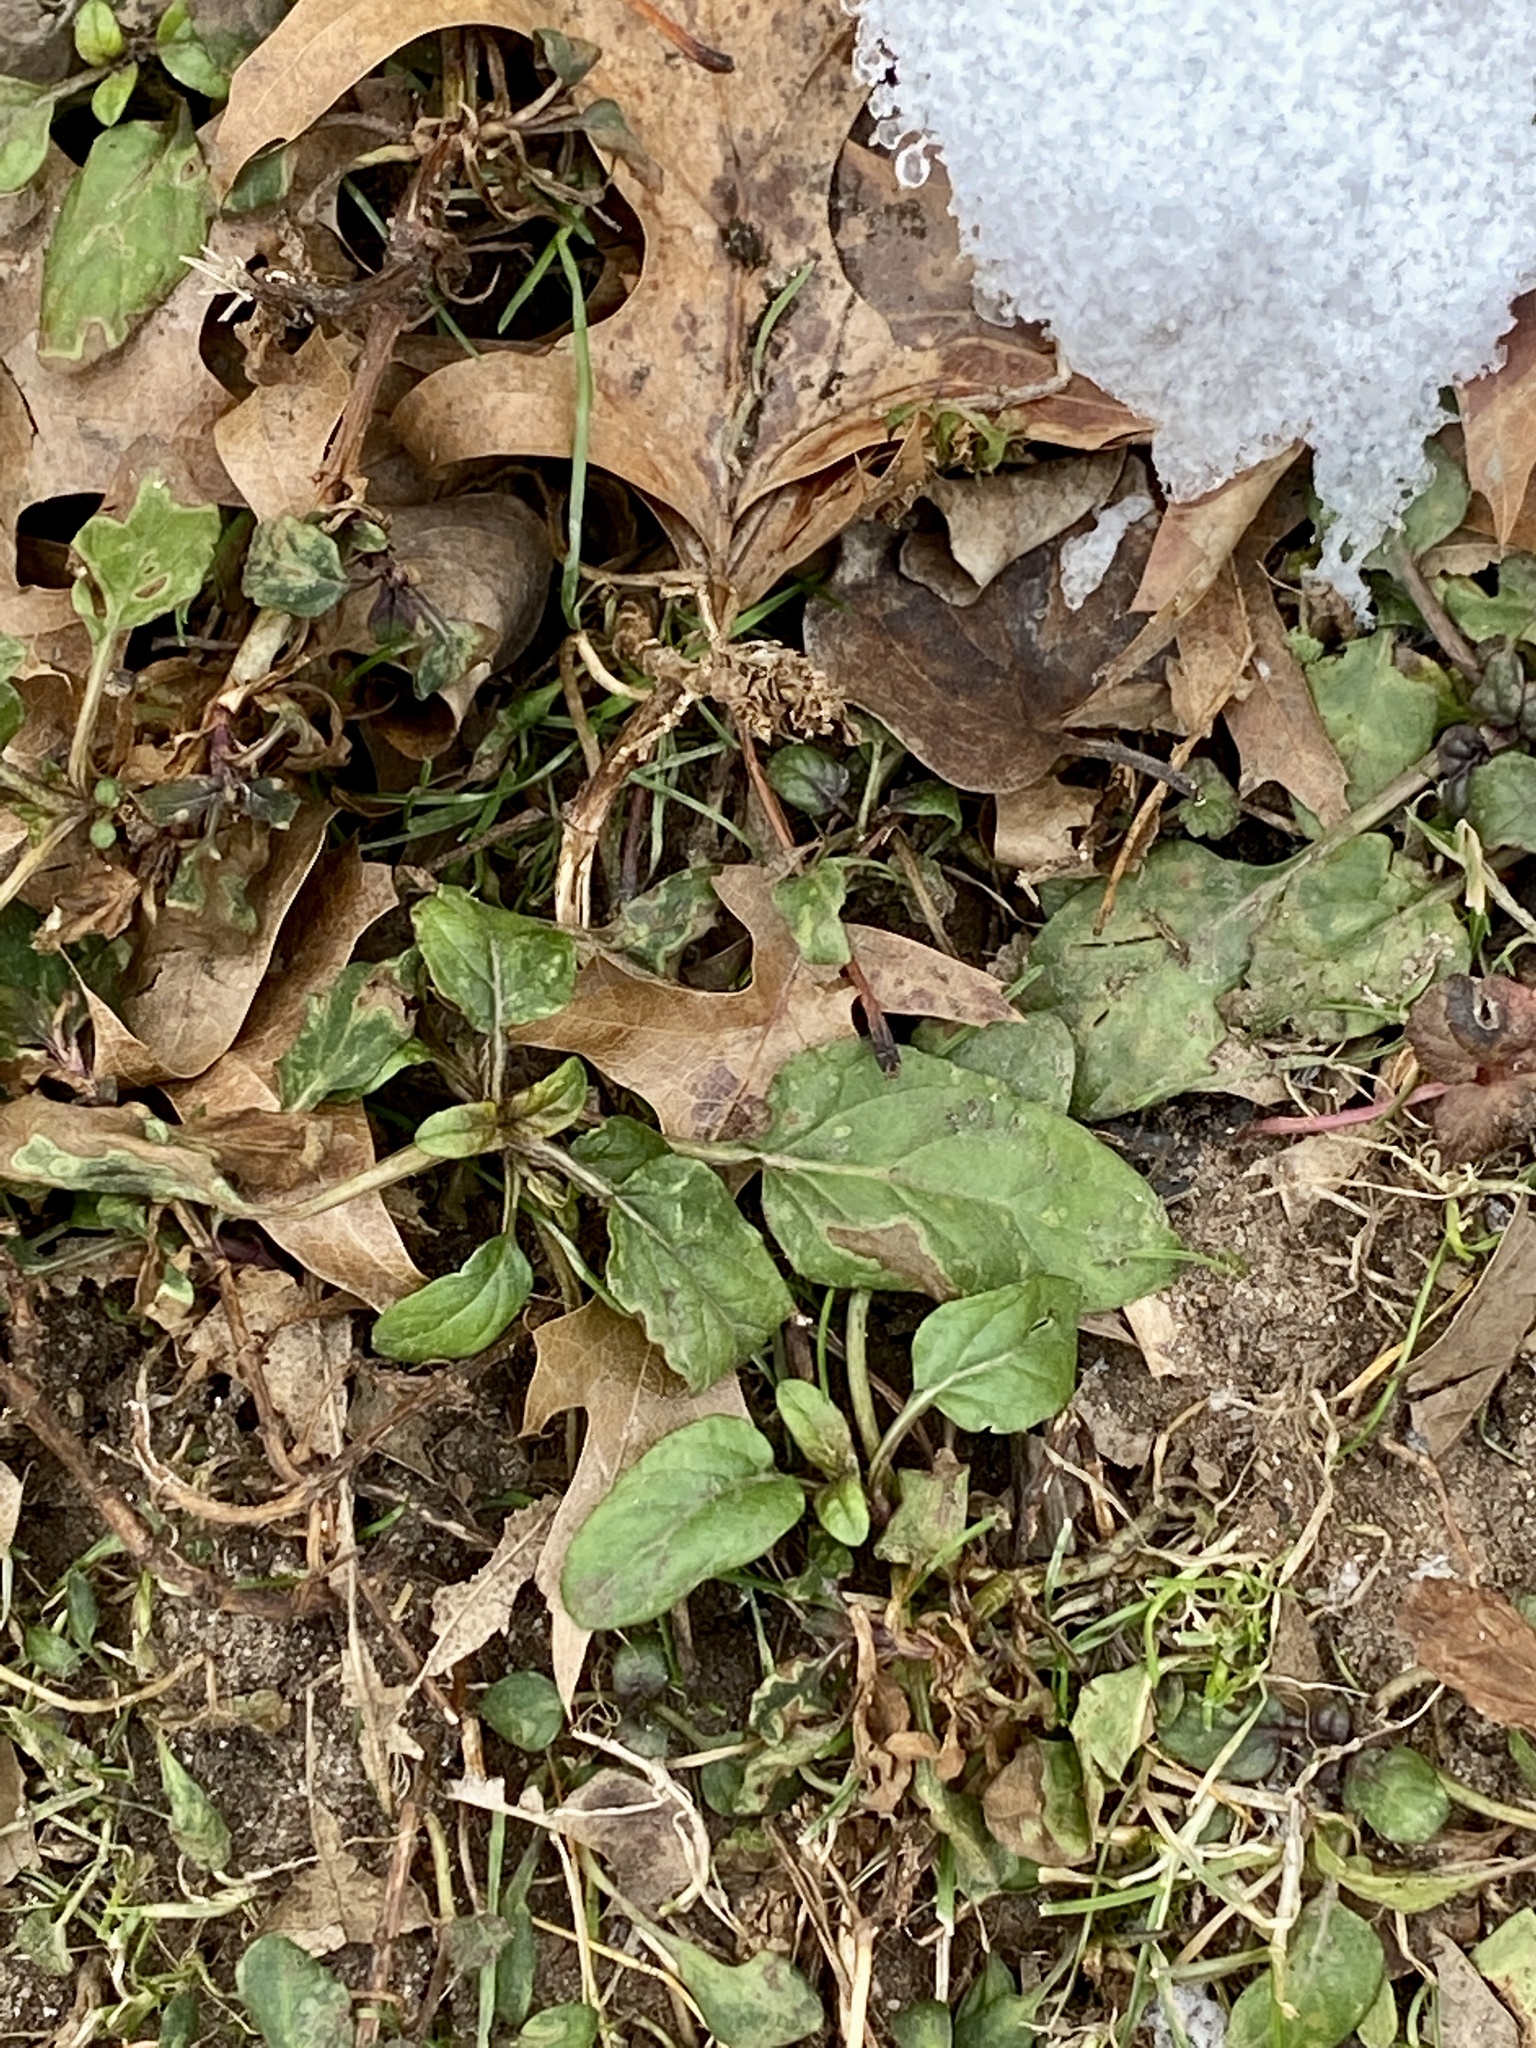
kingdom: Plantae
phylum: Tracheophyta
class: Magnoliopsida
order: Lamiales
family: Lamiaceae
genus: Prunella
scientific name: Prunella vulgaris
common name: Heal-all
